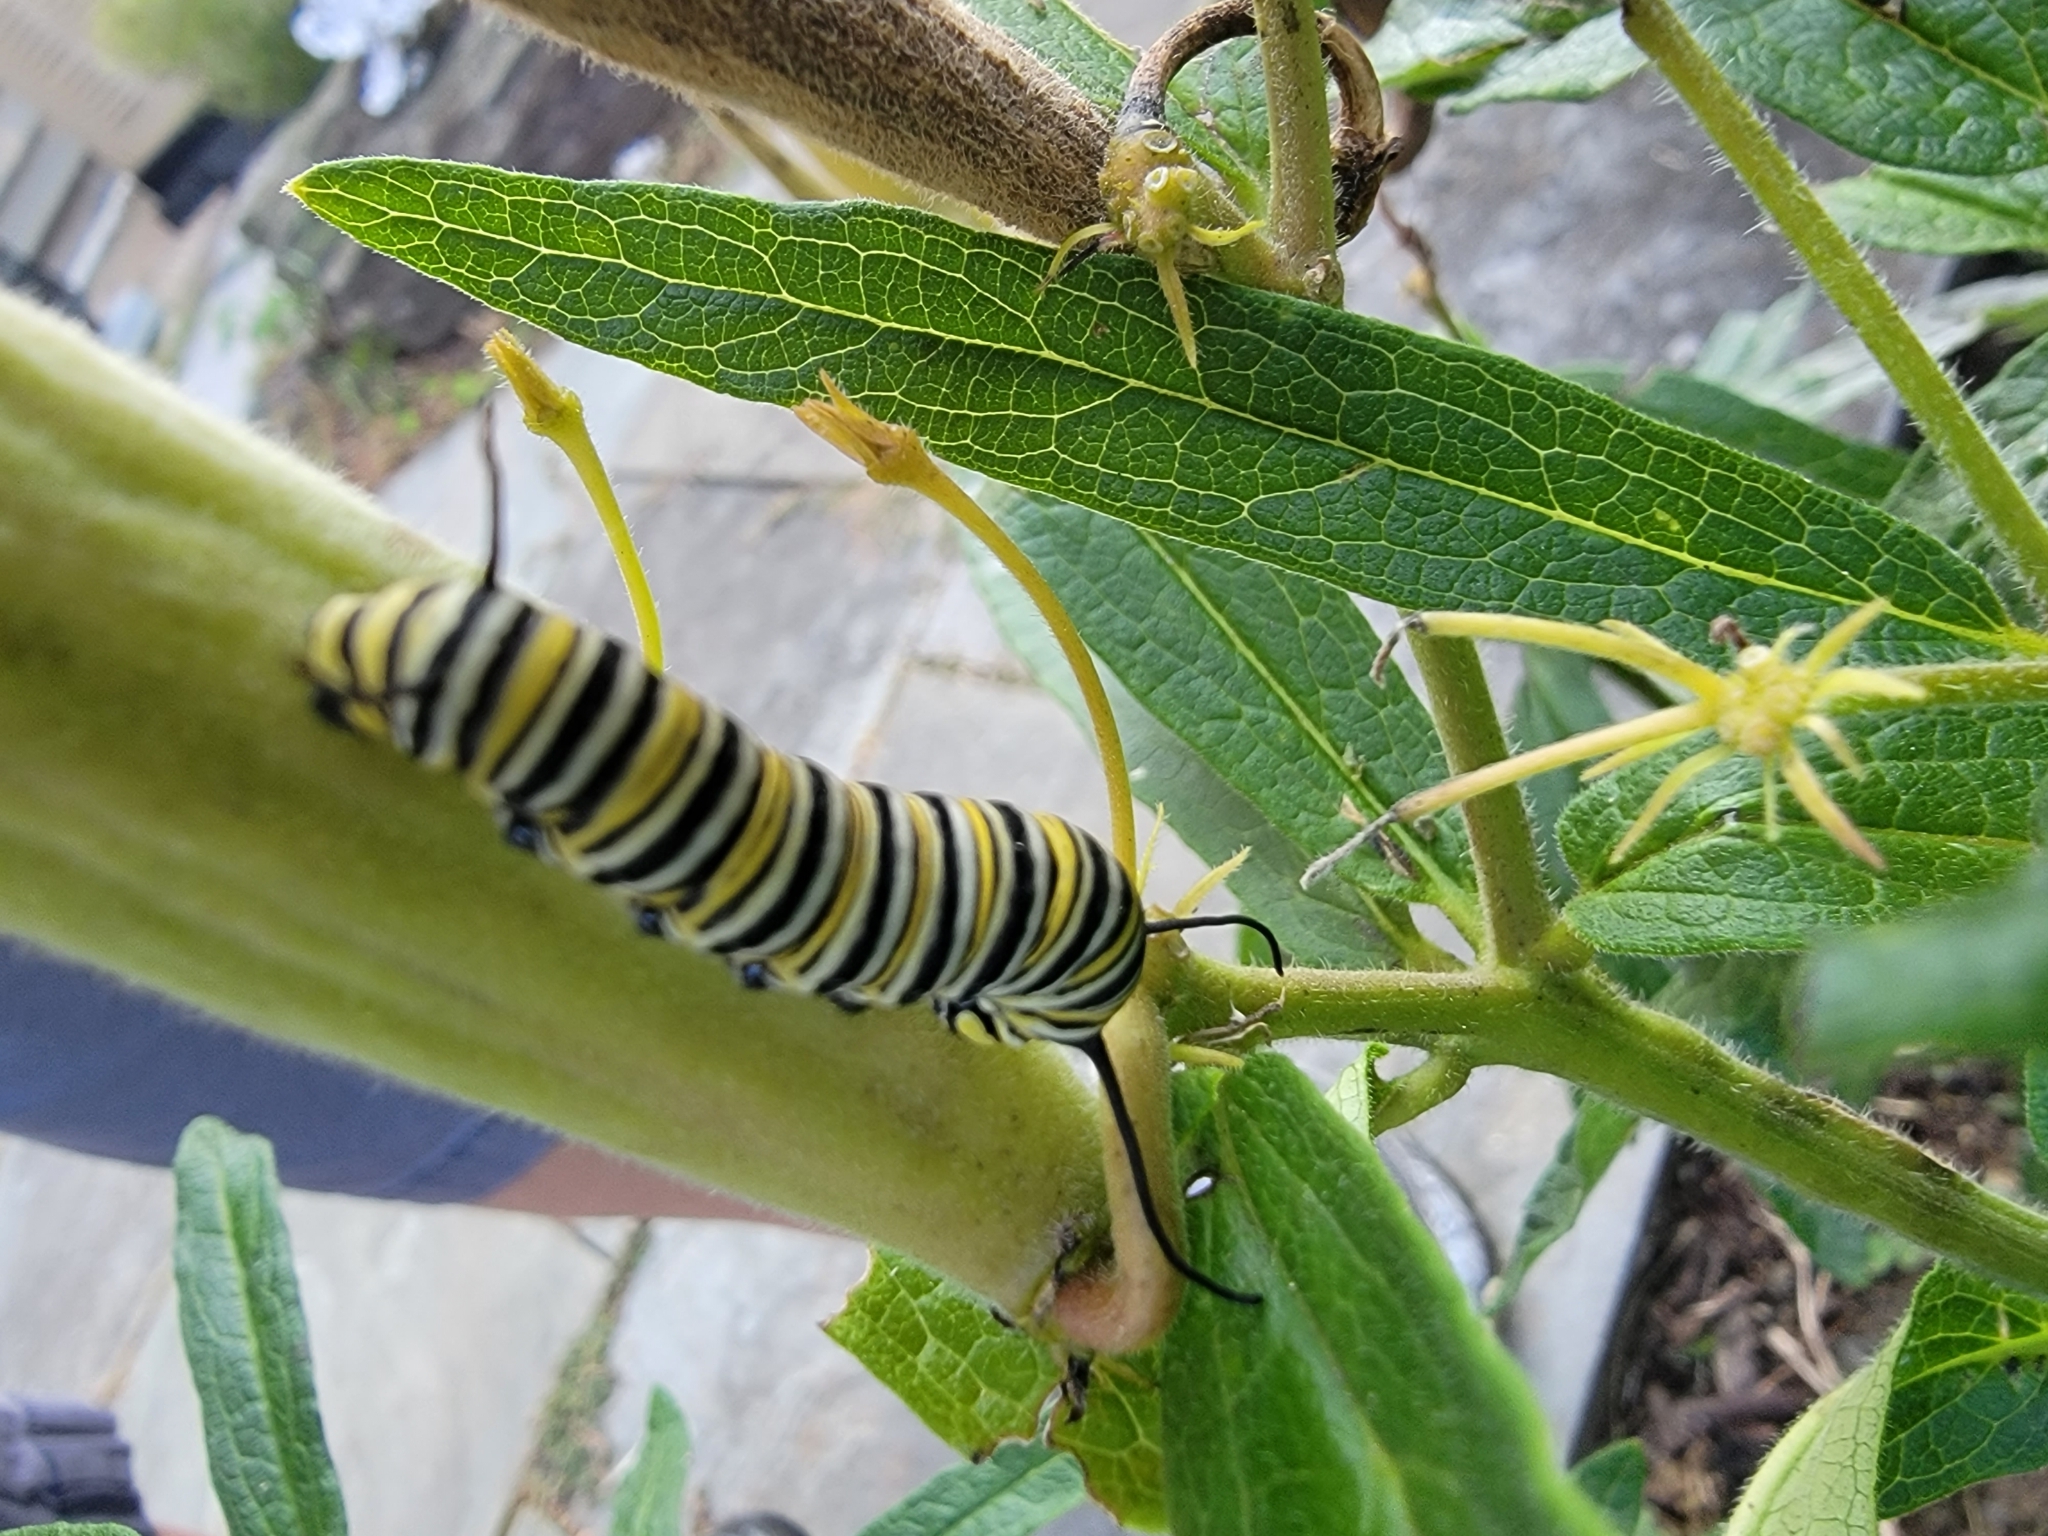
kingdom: Animalia
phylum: Arthropoda
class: Insecta
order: Lepidoptera
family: Nymphalidae
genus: Danaus
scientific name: Danaus plexippus
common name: Monarch
